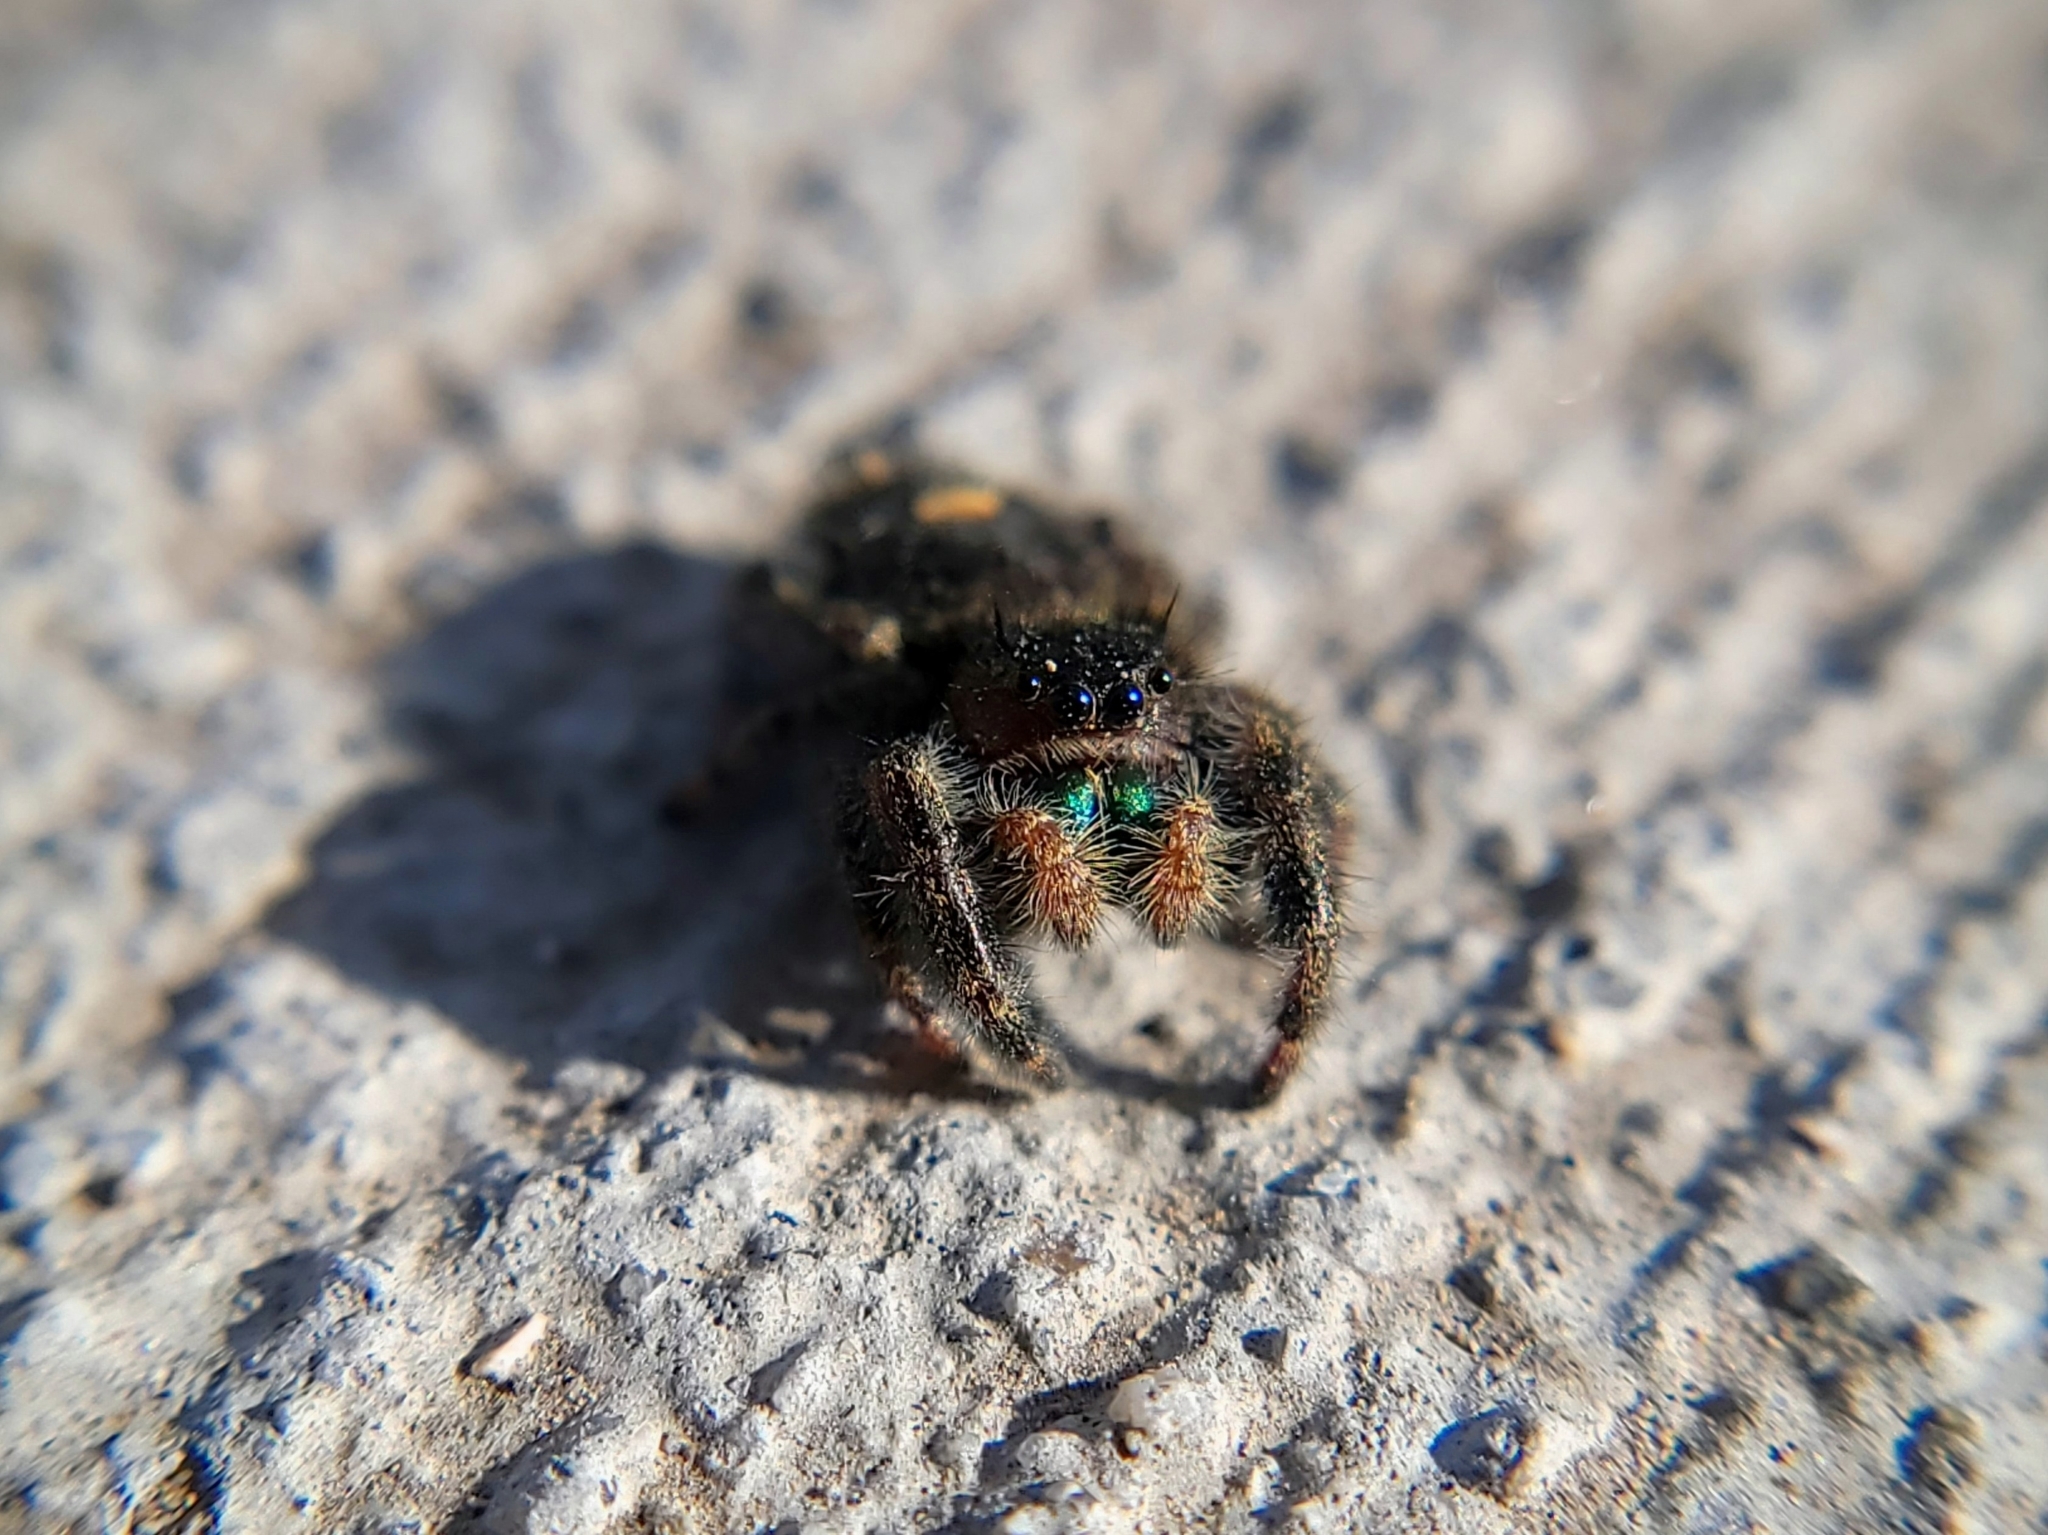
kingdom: Animalia
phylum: Arthropoda
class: Arachnida
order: Araneae
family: Salticidae
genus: Phidippus
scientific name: Phidippus audax
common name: Bold jumper
